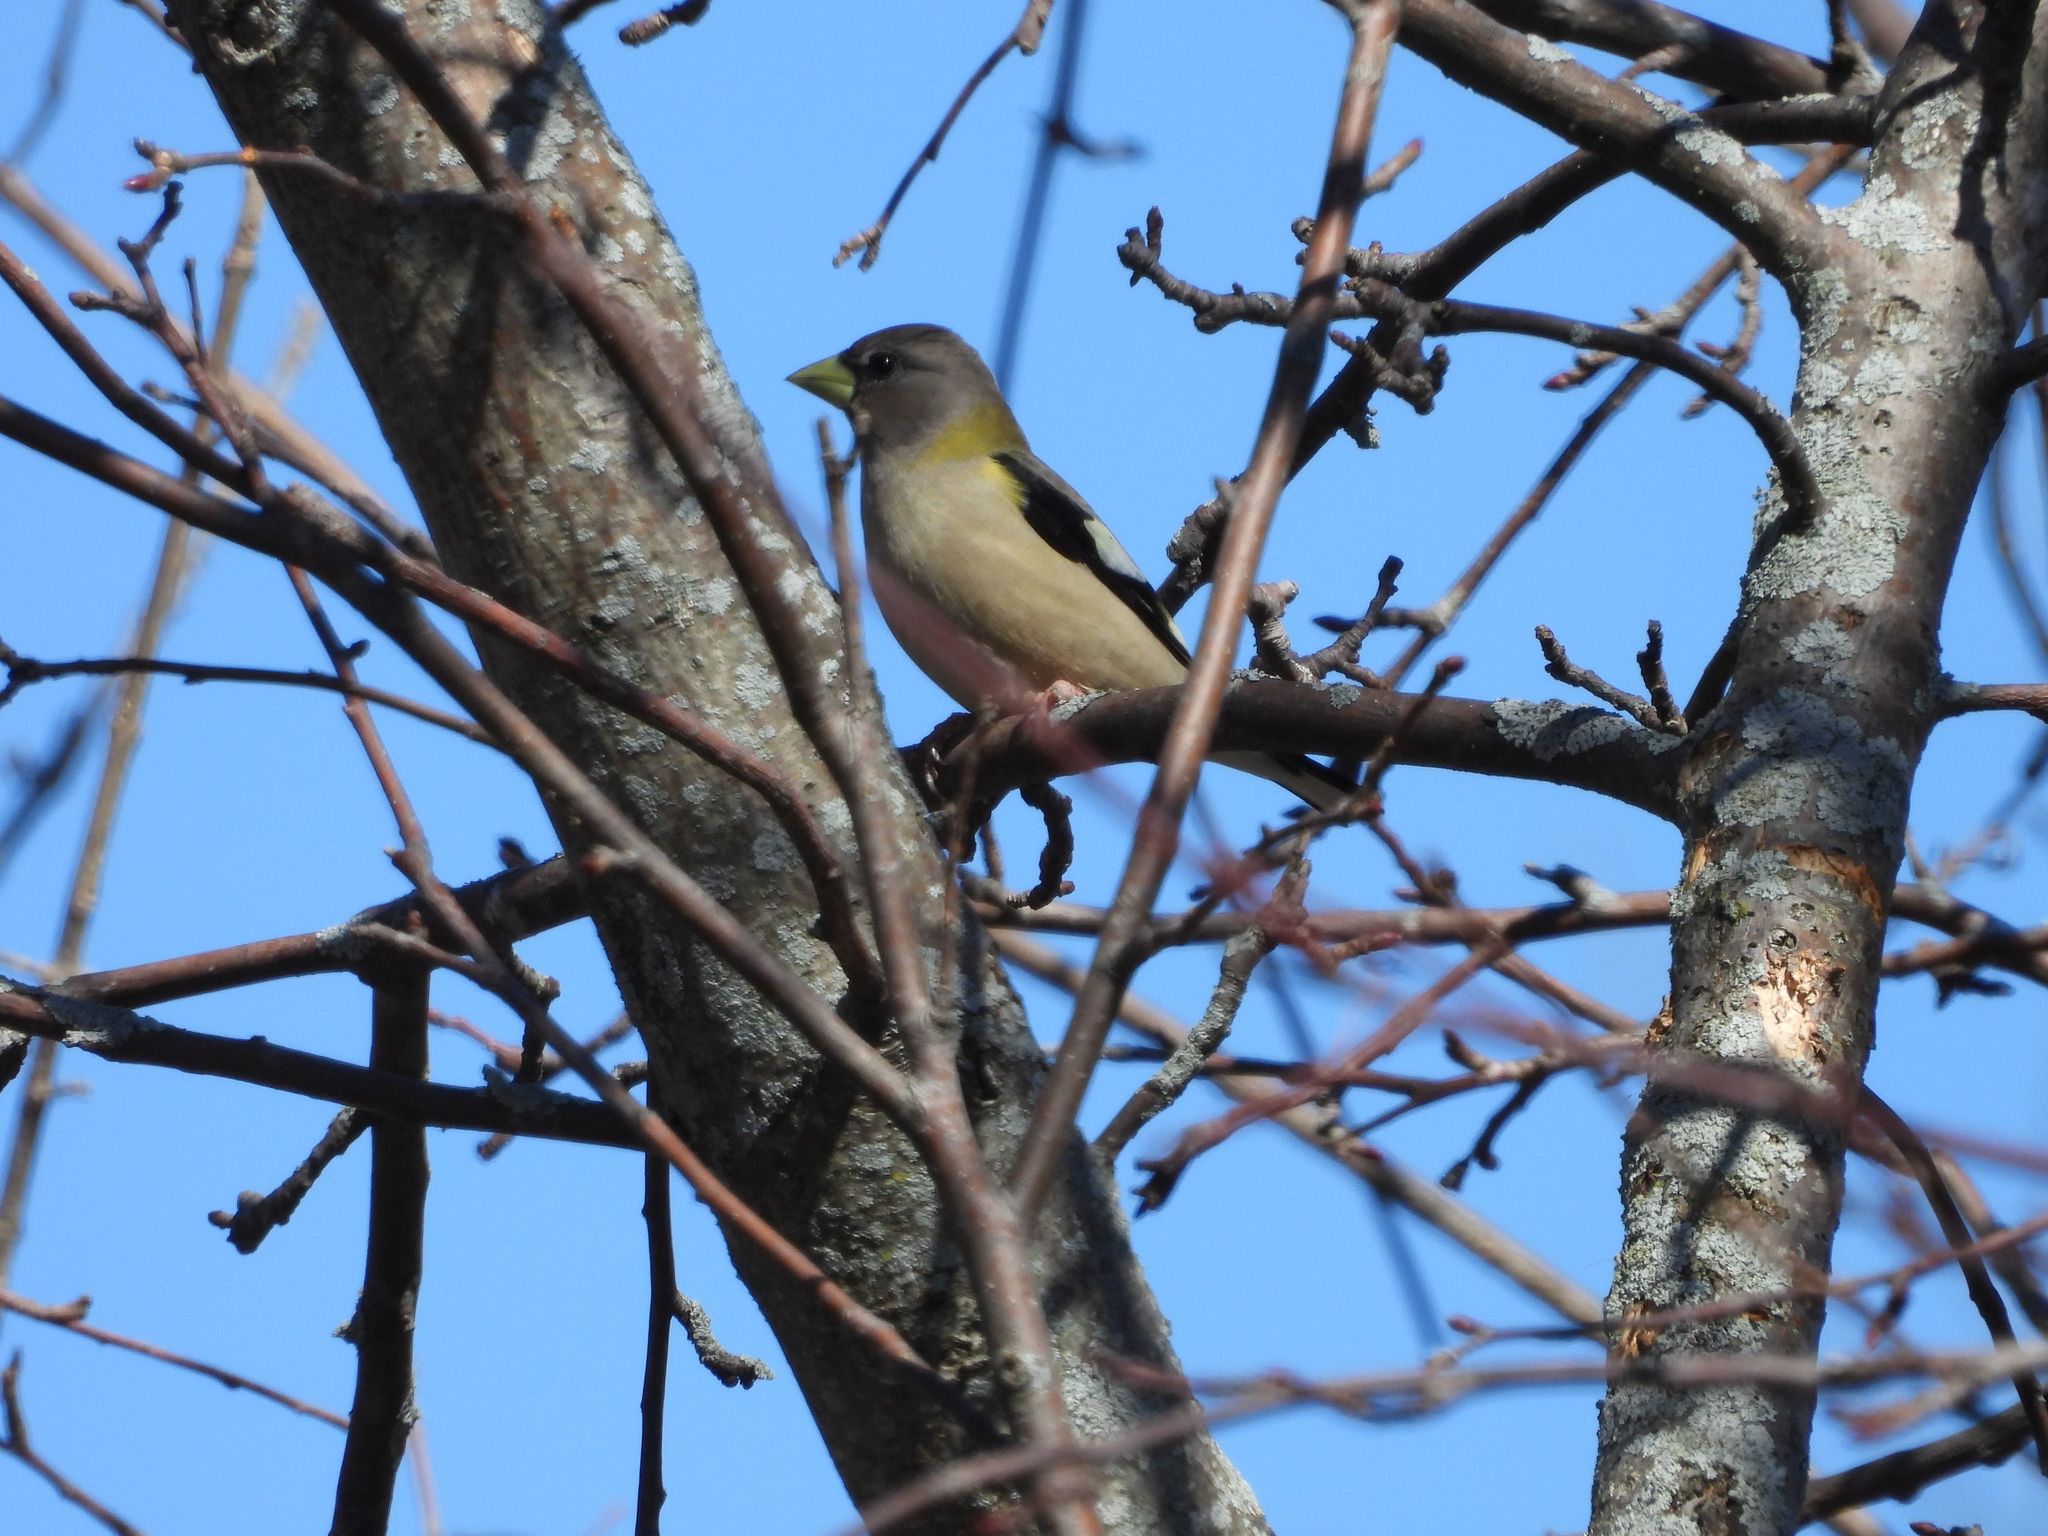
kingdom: Animalia
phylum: Chordata
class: Aves
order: Passeriformes
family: Fringillidae
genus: Hesperiphona
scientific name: Hesperiphona vespertina
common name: Evening grosbeak
